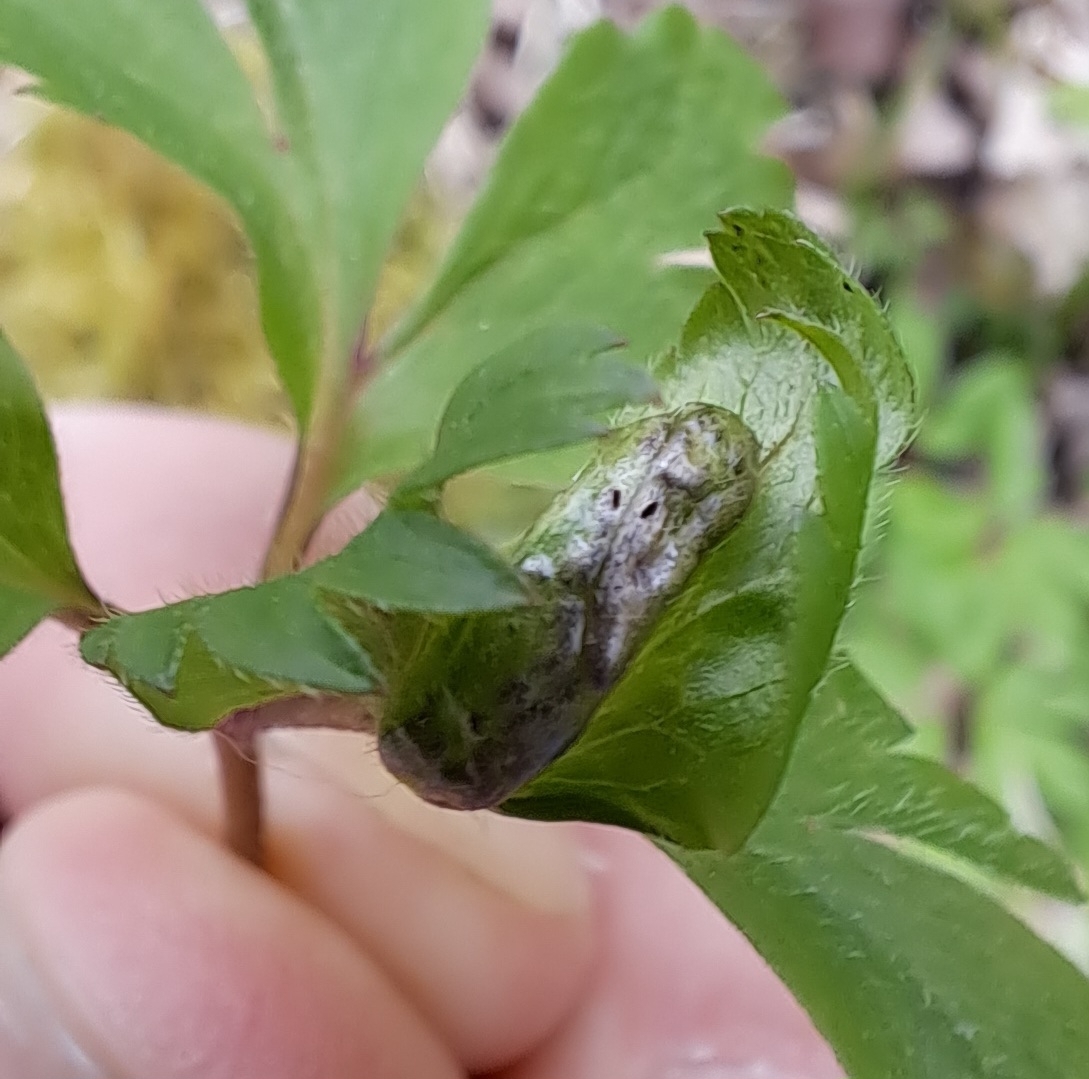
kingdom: Fungi
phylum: Basidiomycota
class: Ustilaginomycetes
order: Urocystidales
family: Urocystidaceae
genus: Urocystis
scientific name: Urocystis anemones
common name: Anemone smut
